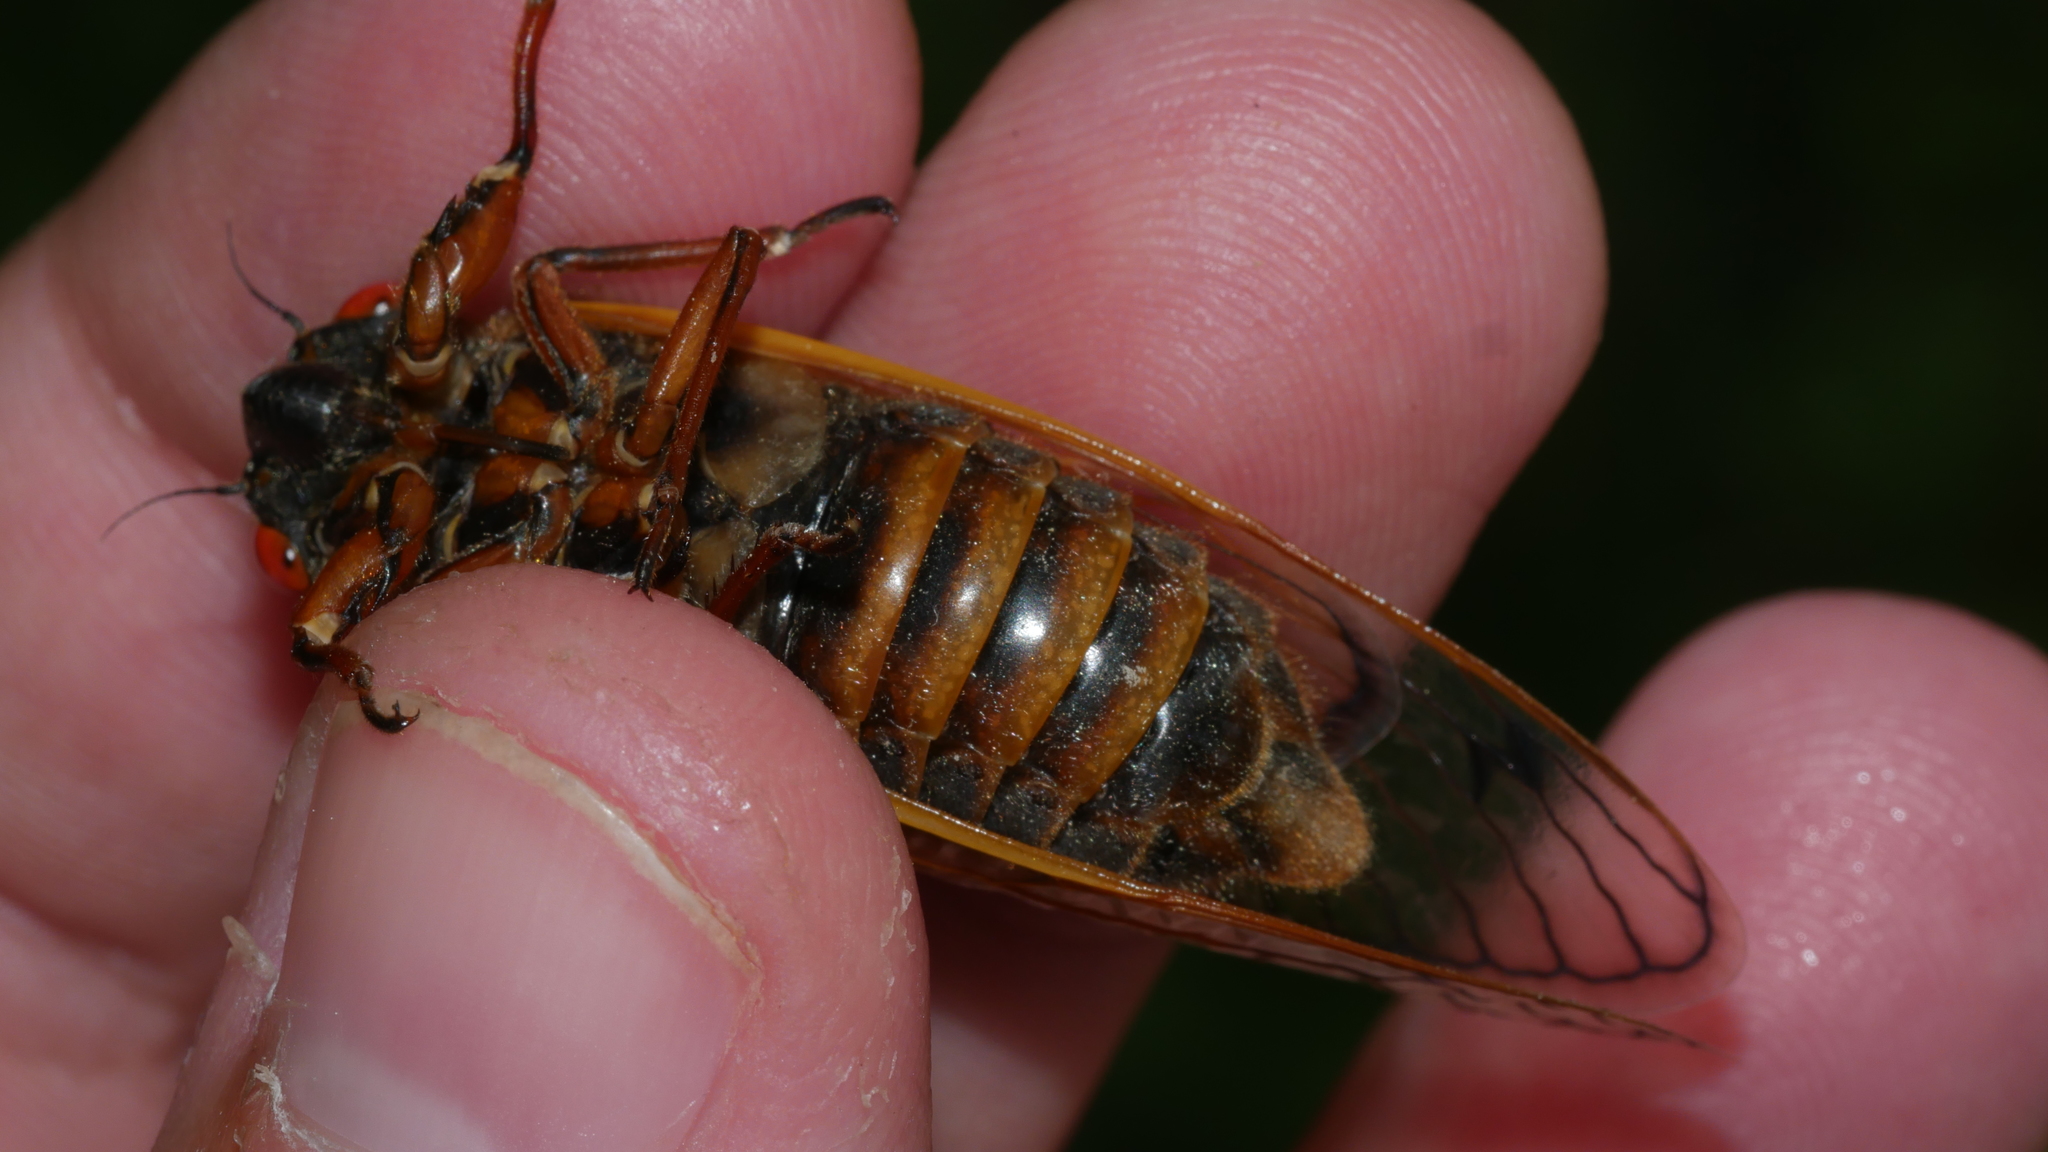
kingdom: Animalia
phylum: Arthropoda
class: Insecta
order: Hemiptera
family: Cicadidae
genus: Magicicada
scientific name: Magicicada septendecim
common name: Periodical cicada
